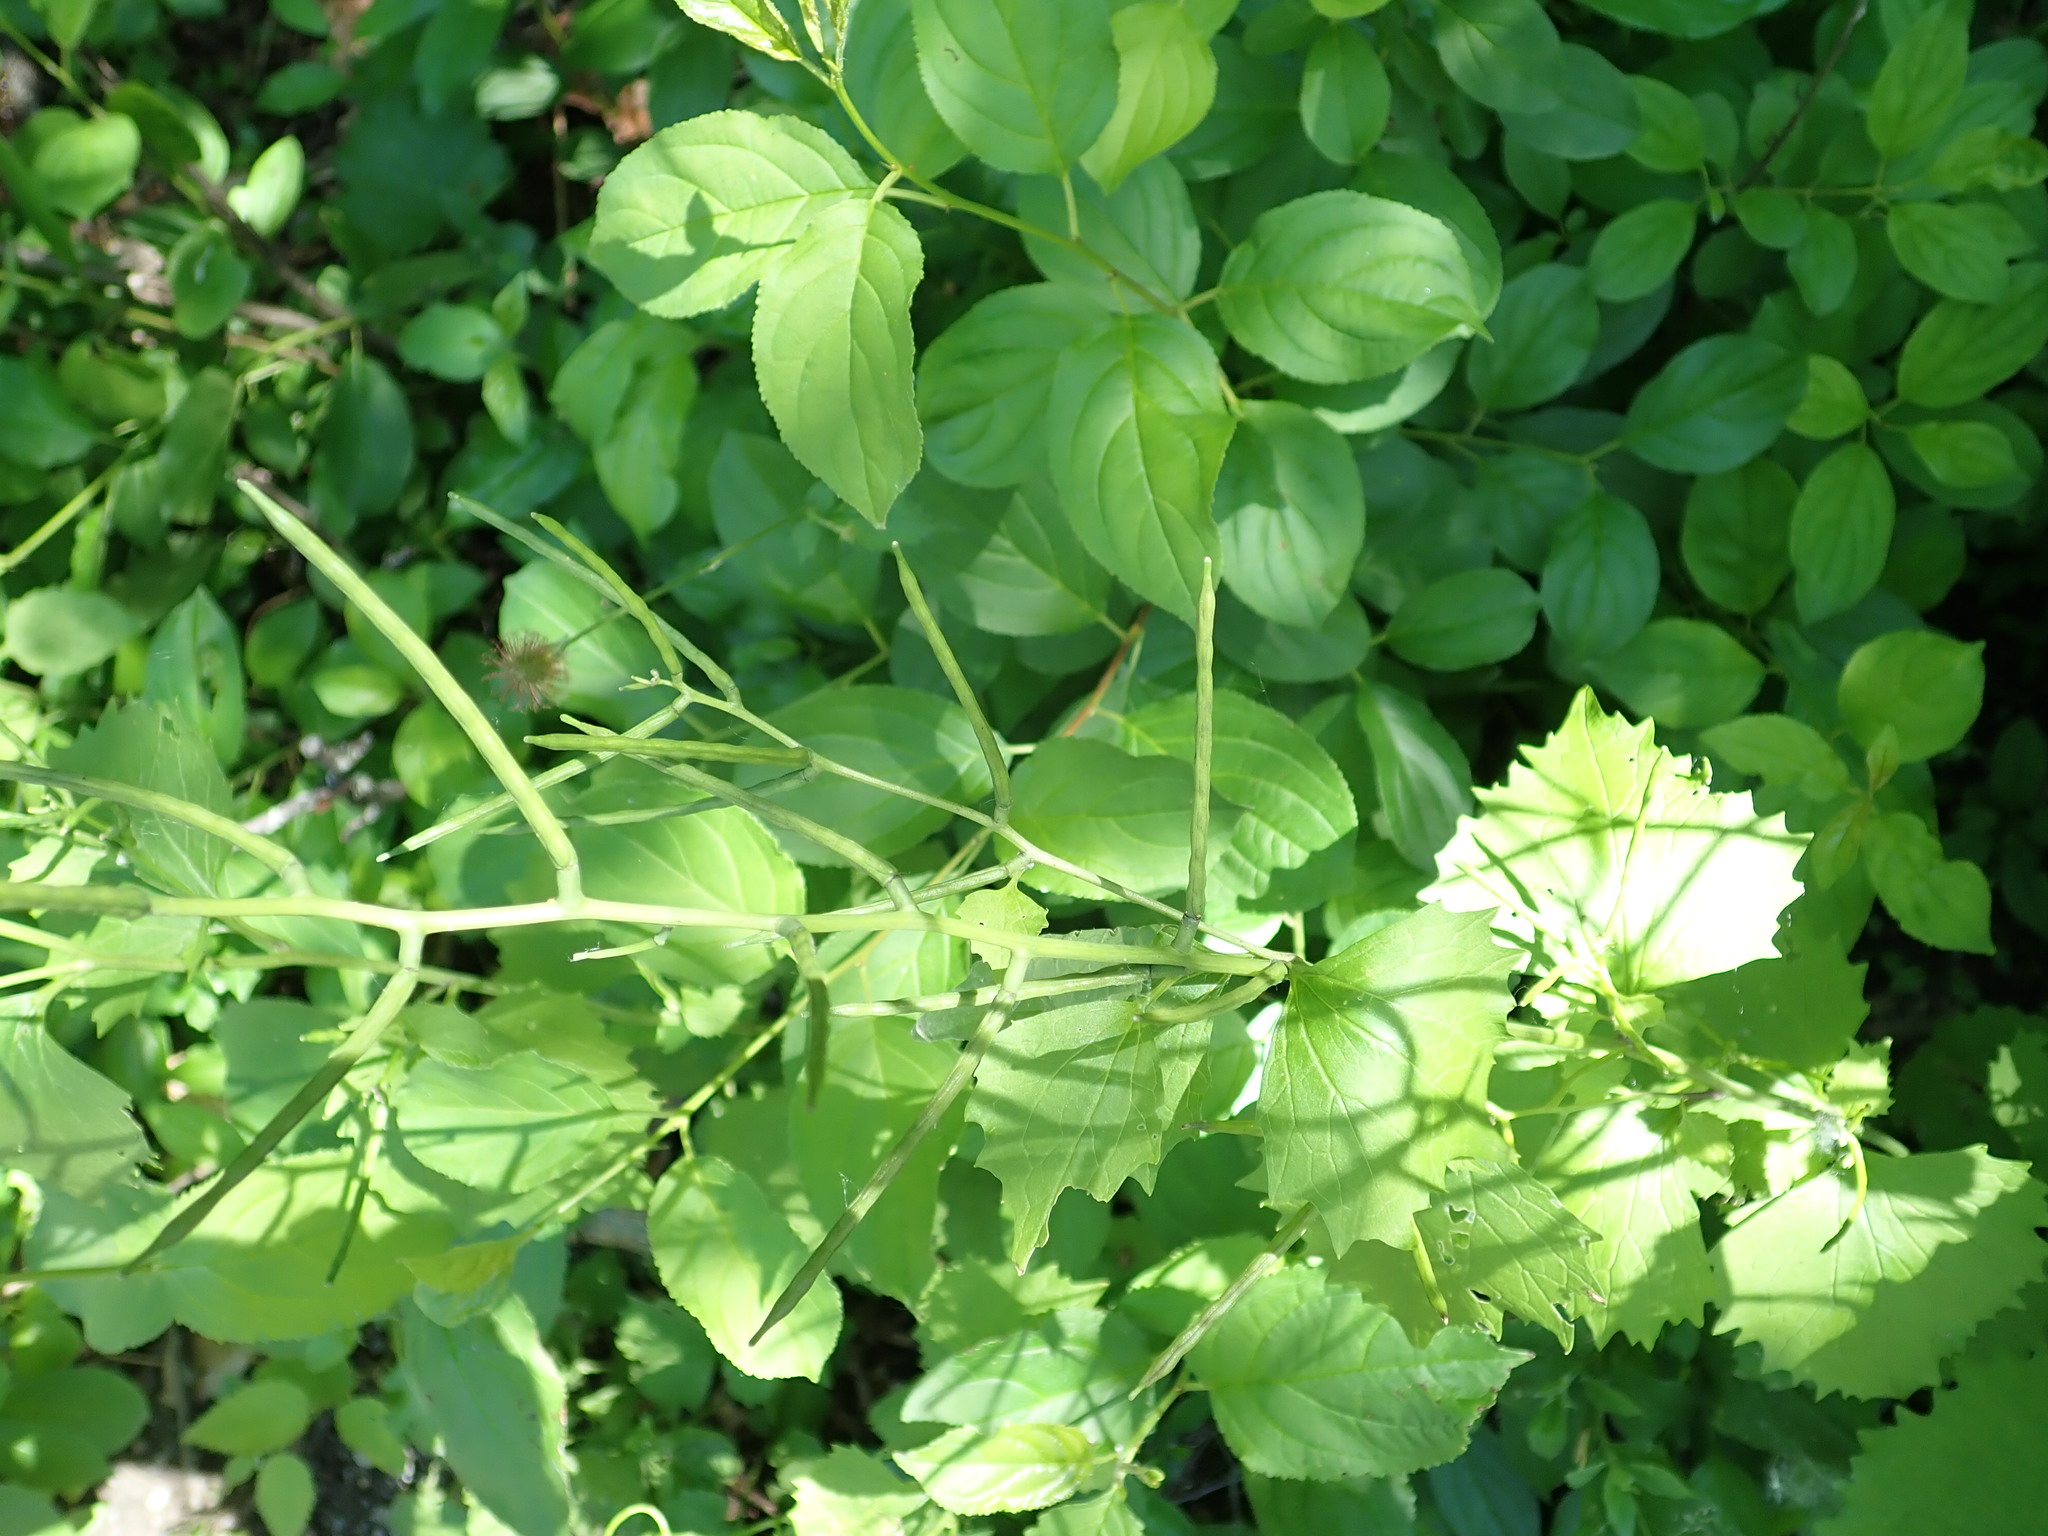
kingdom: Plantae
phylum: Tracheophyta
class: Magnoliopsida
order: Brassicales
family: Brassicaceae
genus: Alliaria
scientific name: Alliaria petiolata
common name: Garlic mustard
